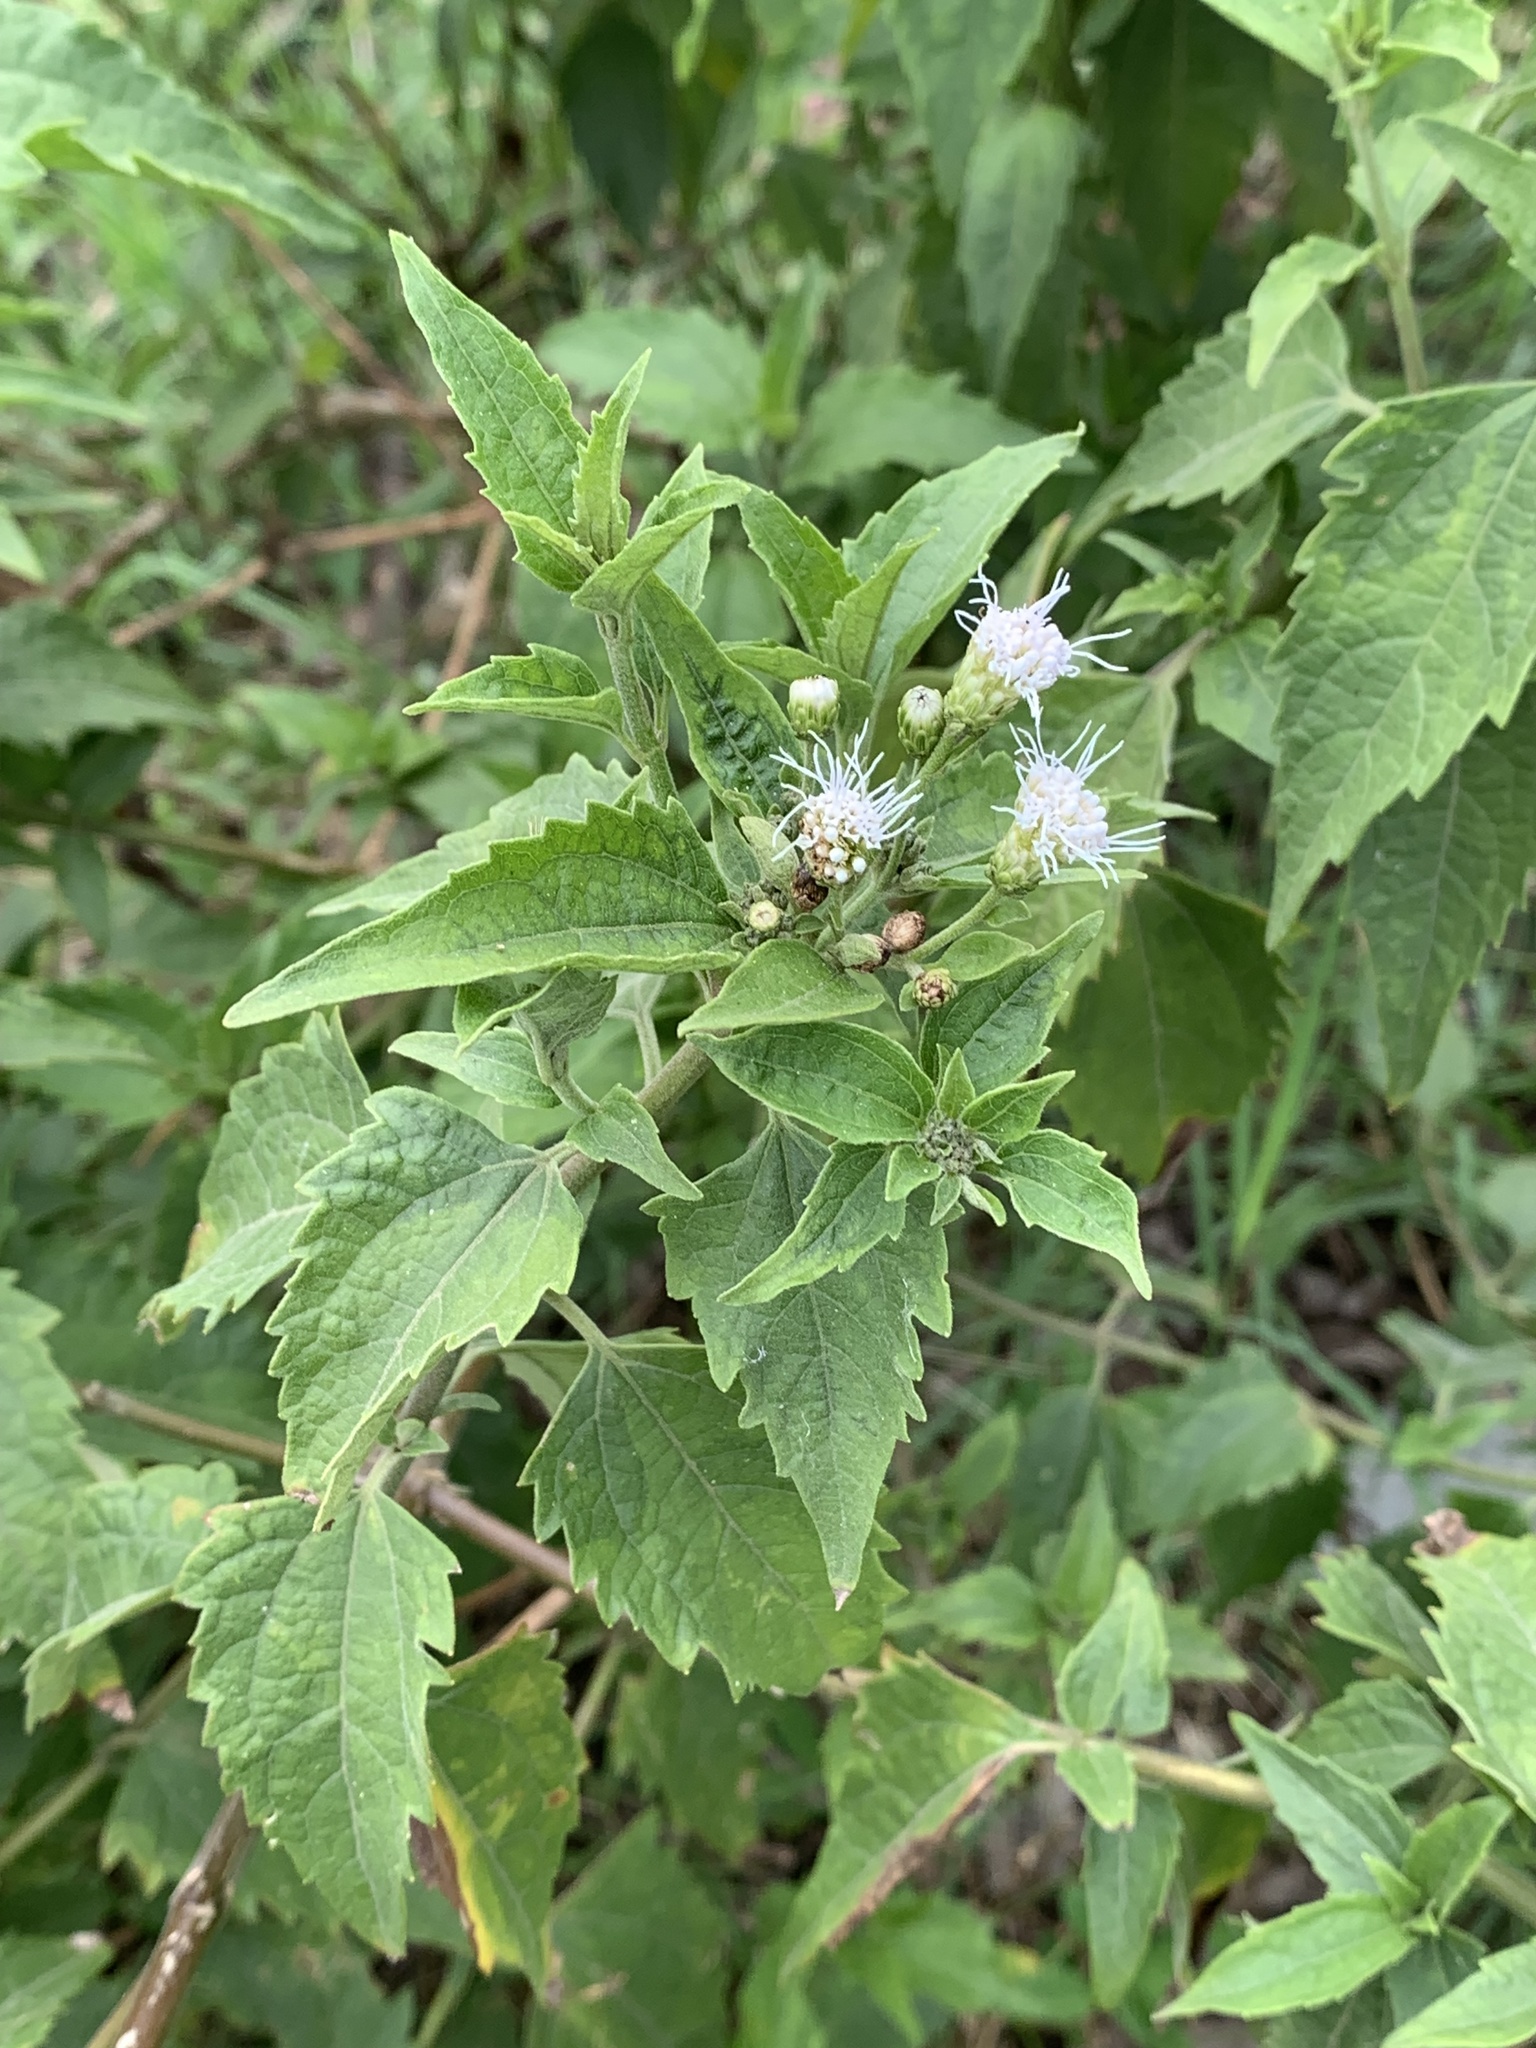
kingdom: Plantae
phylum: Tracheophyta
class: Magnoliopsida
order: Asterales
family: Asteraceae
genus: Chromolaena
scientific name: Chromolaena odorata
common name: Siamweed
